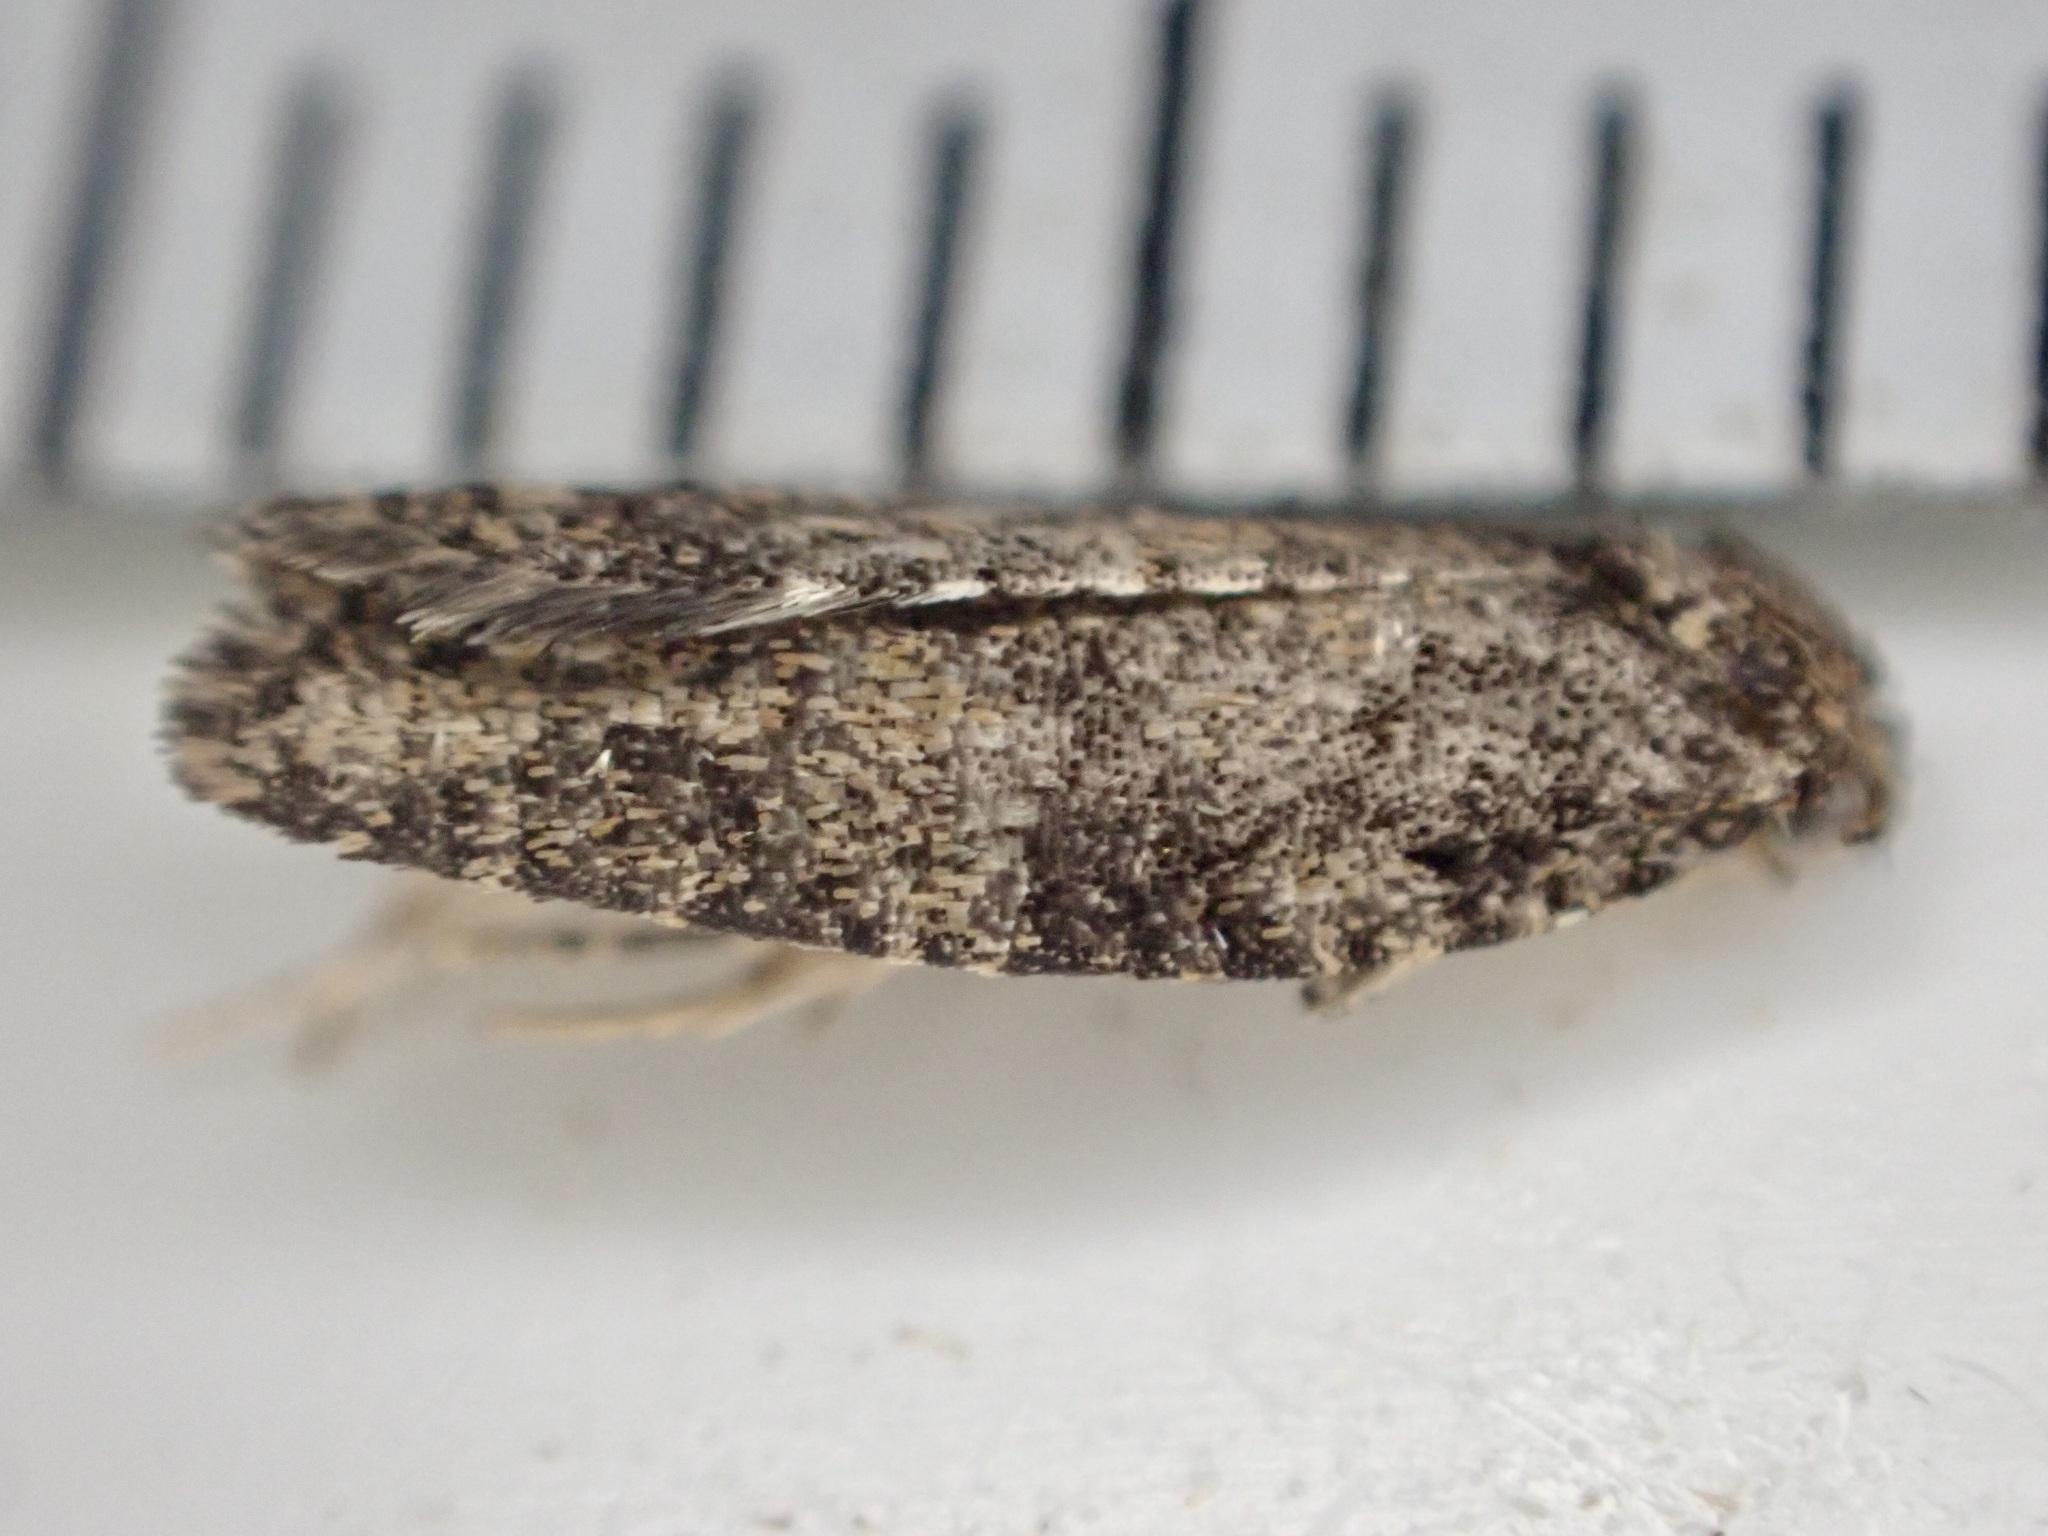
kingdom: Animalia
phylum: Arthropoda
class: Insecta
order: Lepidoptera
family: Tortricidae
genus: Capua
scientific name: Capua intractana
